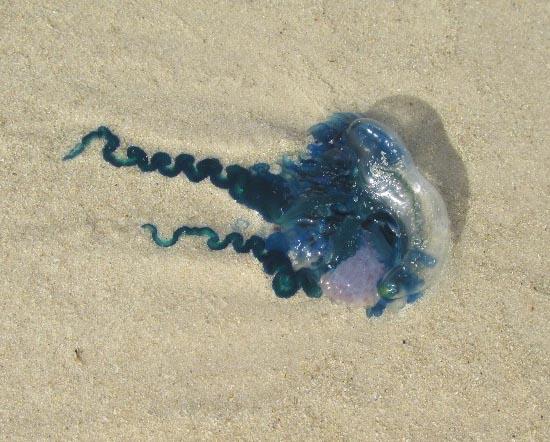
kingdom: Animalia
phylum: Cnidaria
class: Hydrozoa
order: Siphonophorae
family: Physaliidae
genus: Physalia
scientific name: Physalia physalis
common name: Portuguese man-of-war
